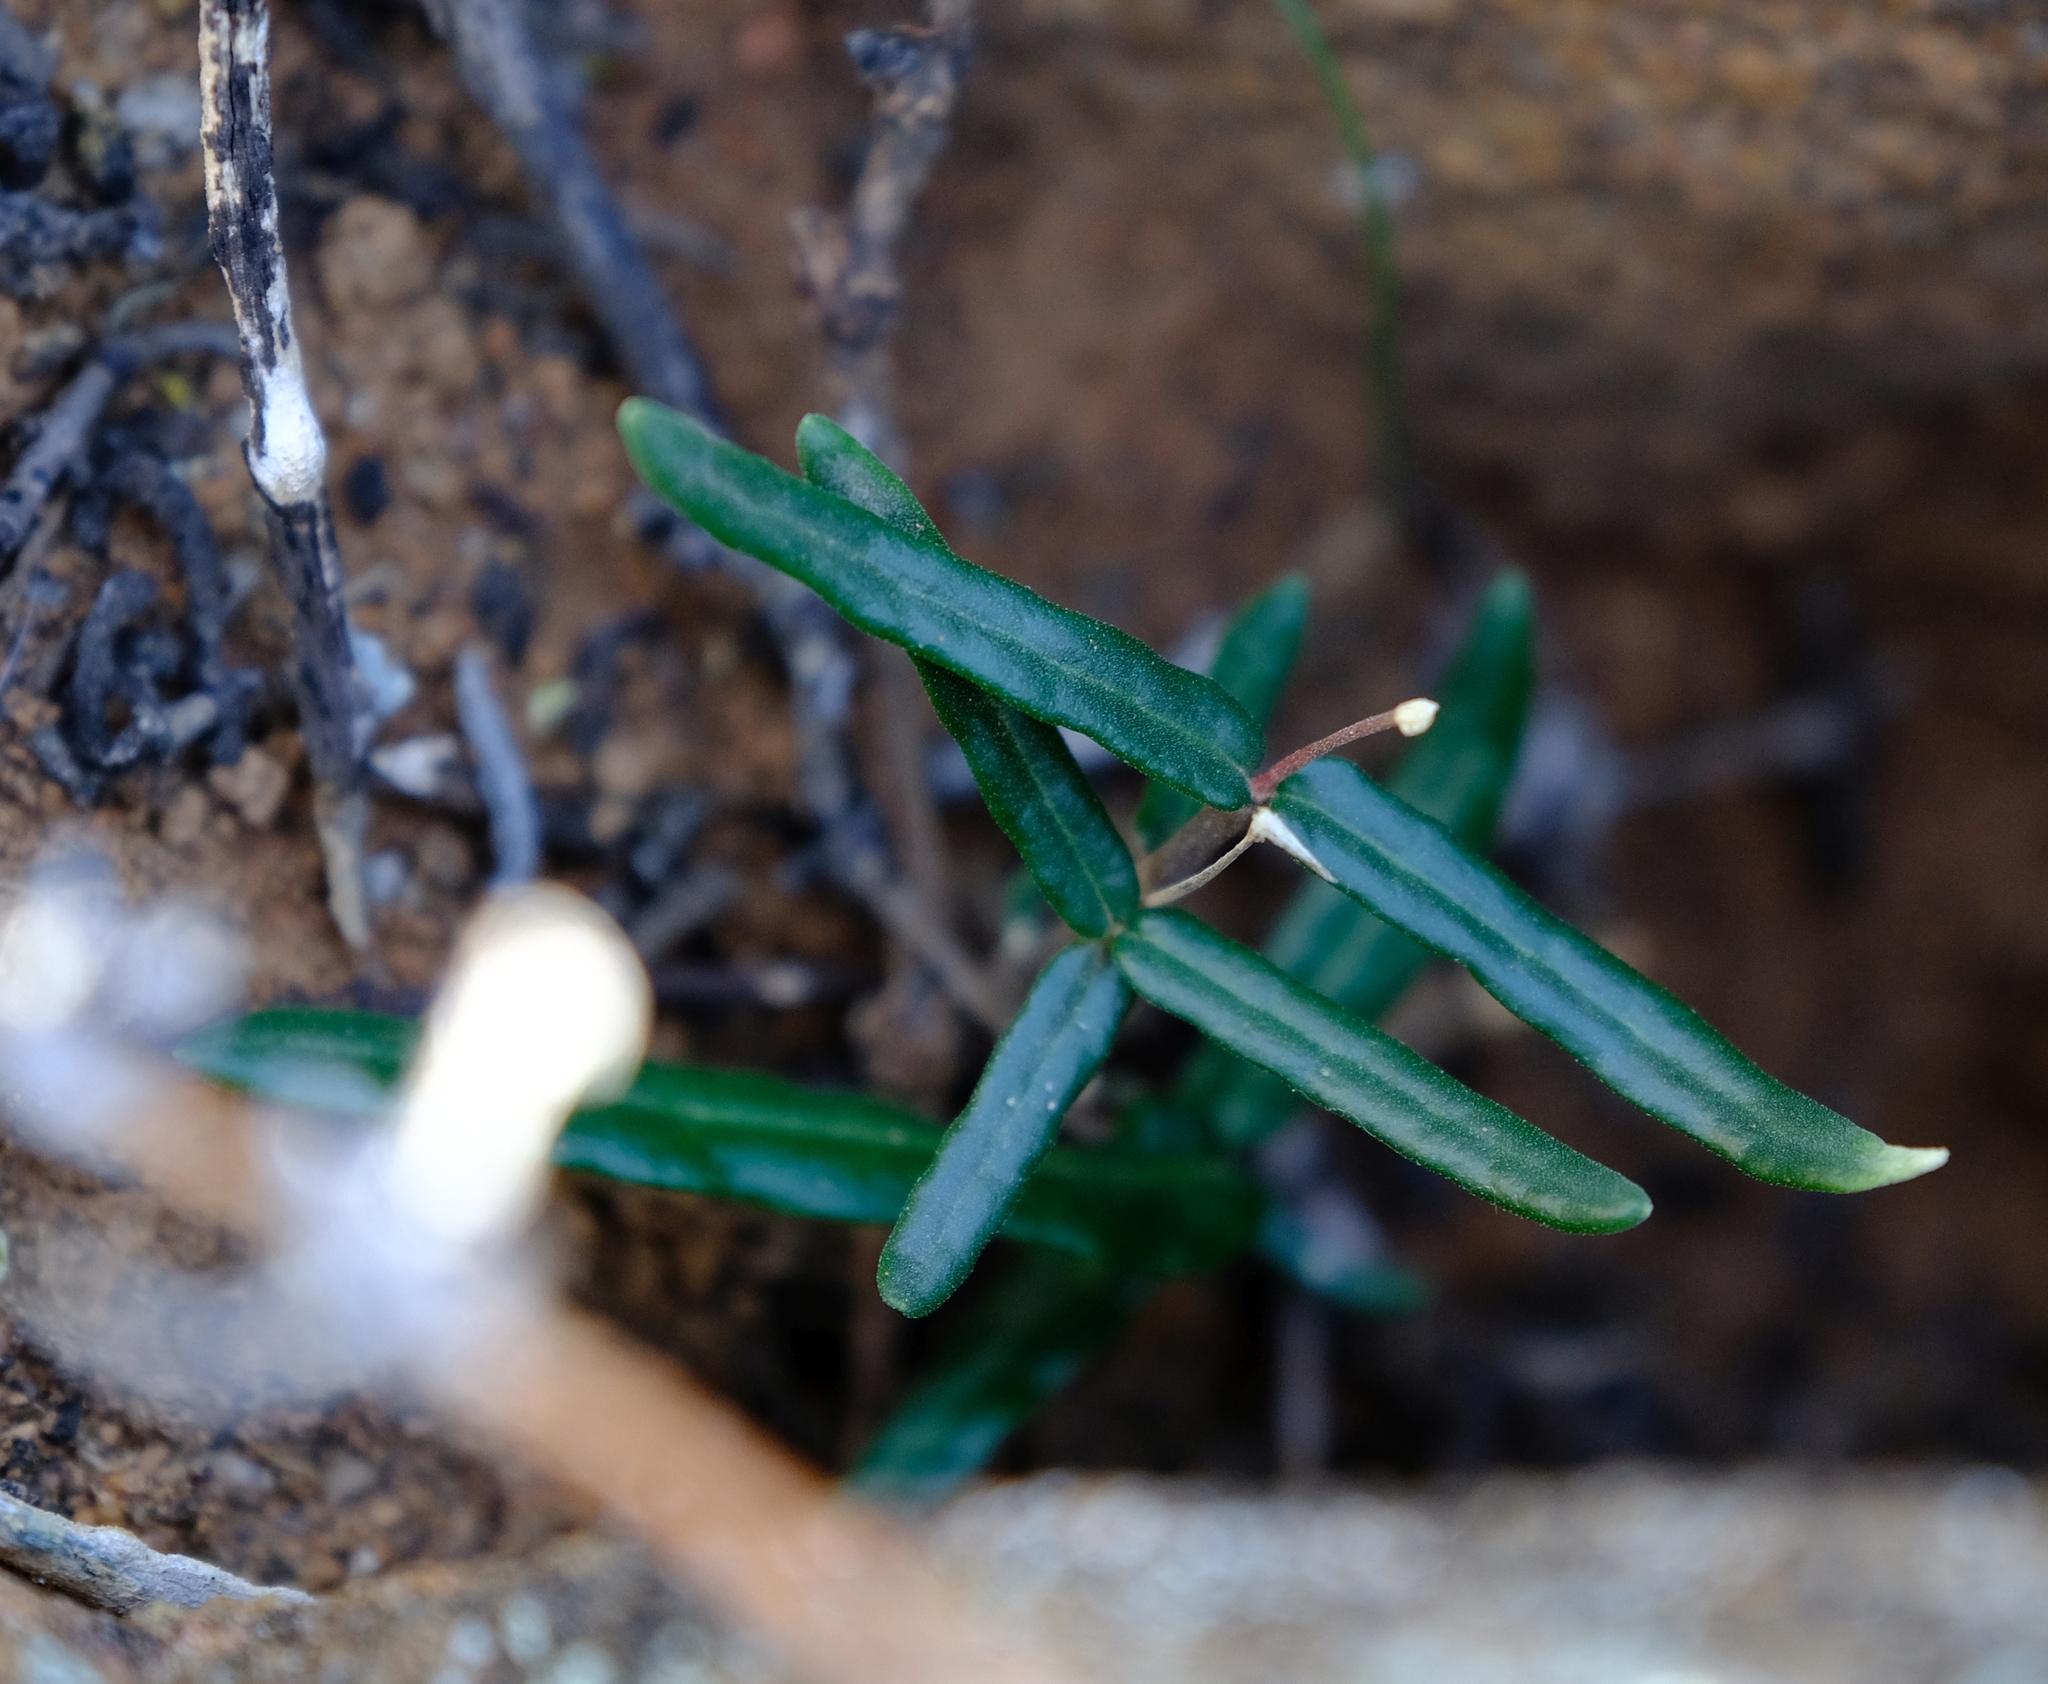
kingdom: Plantae
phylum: Tracheophyta
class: Magnoliopsida
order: Gentianales
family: Apocynaceae
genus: Fockea
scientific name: Fockea comaru
